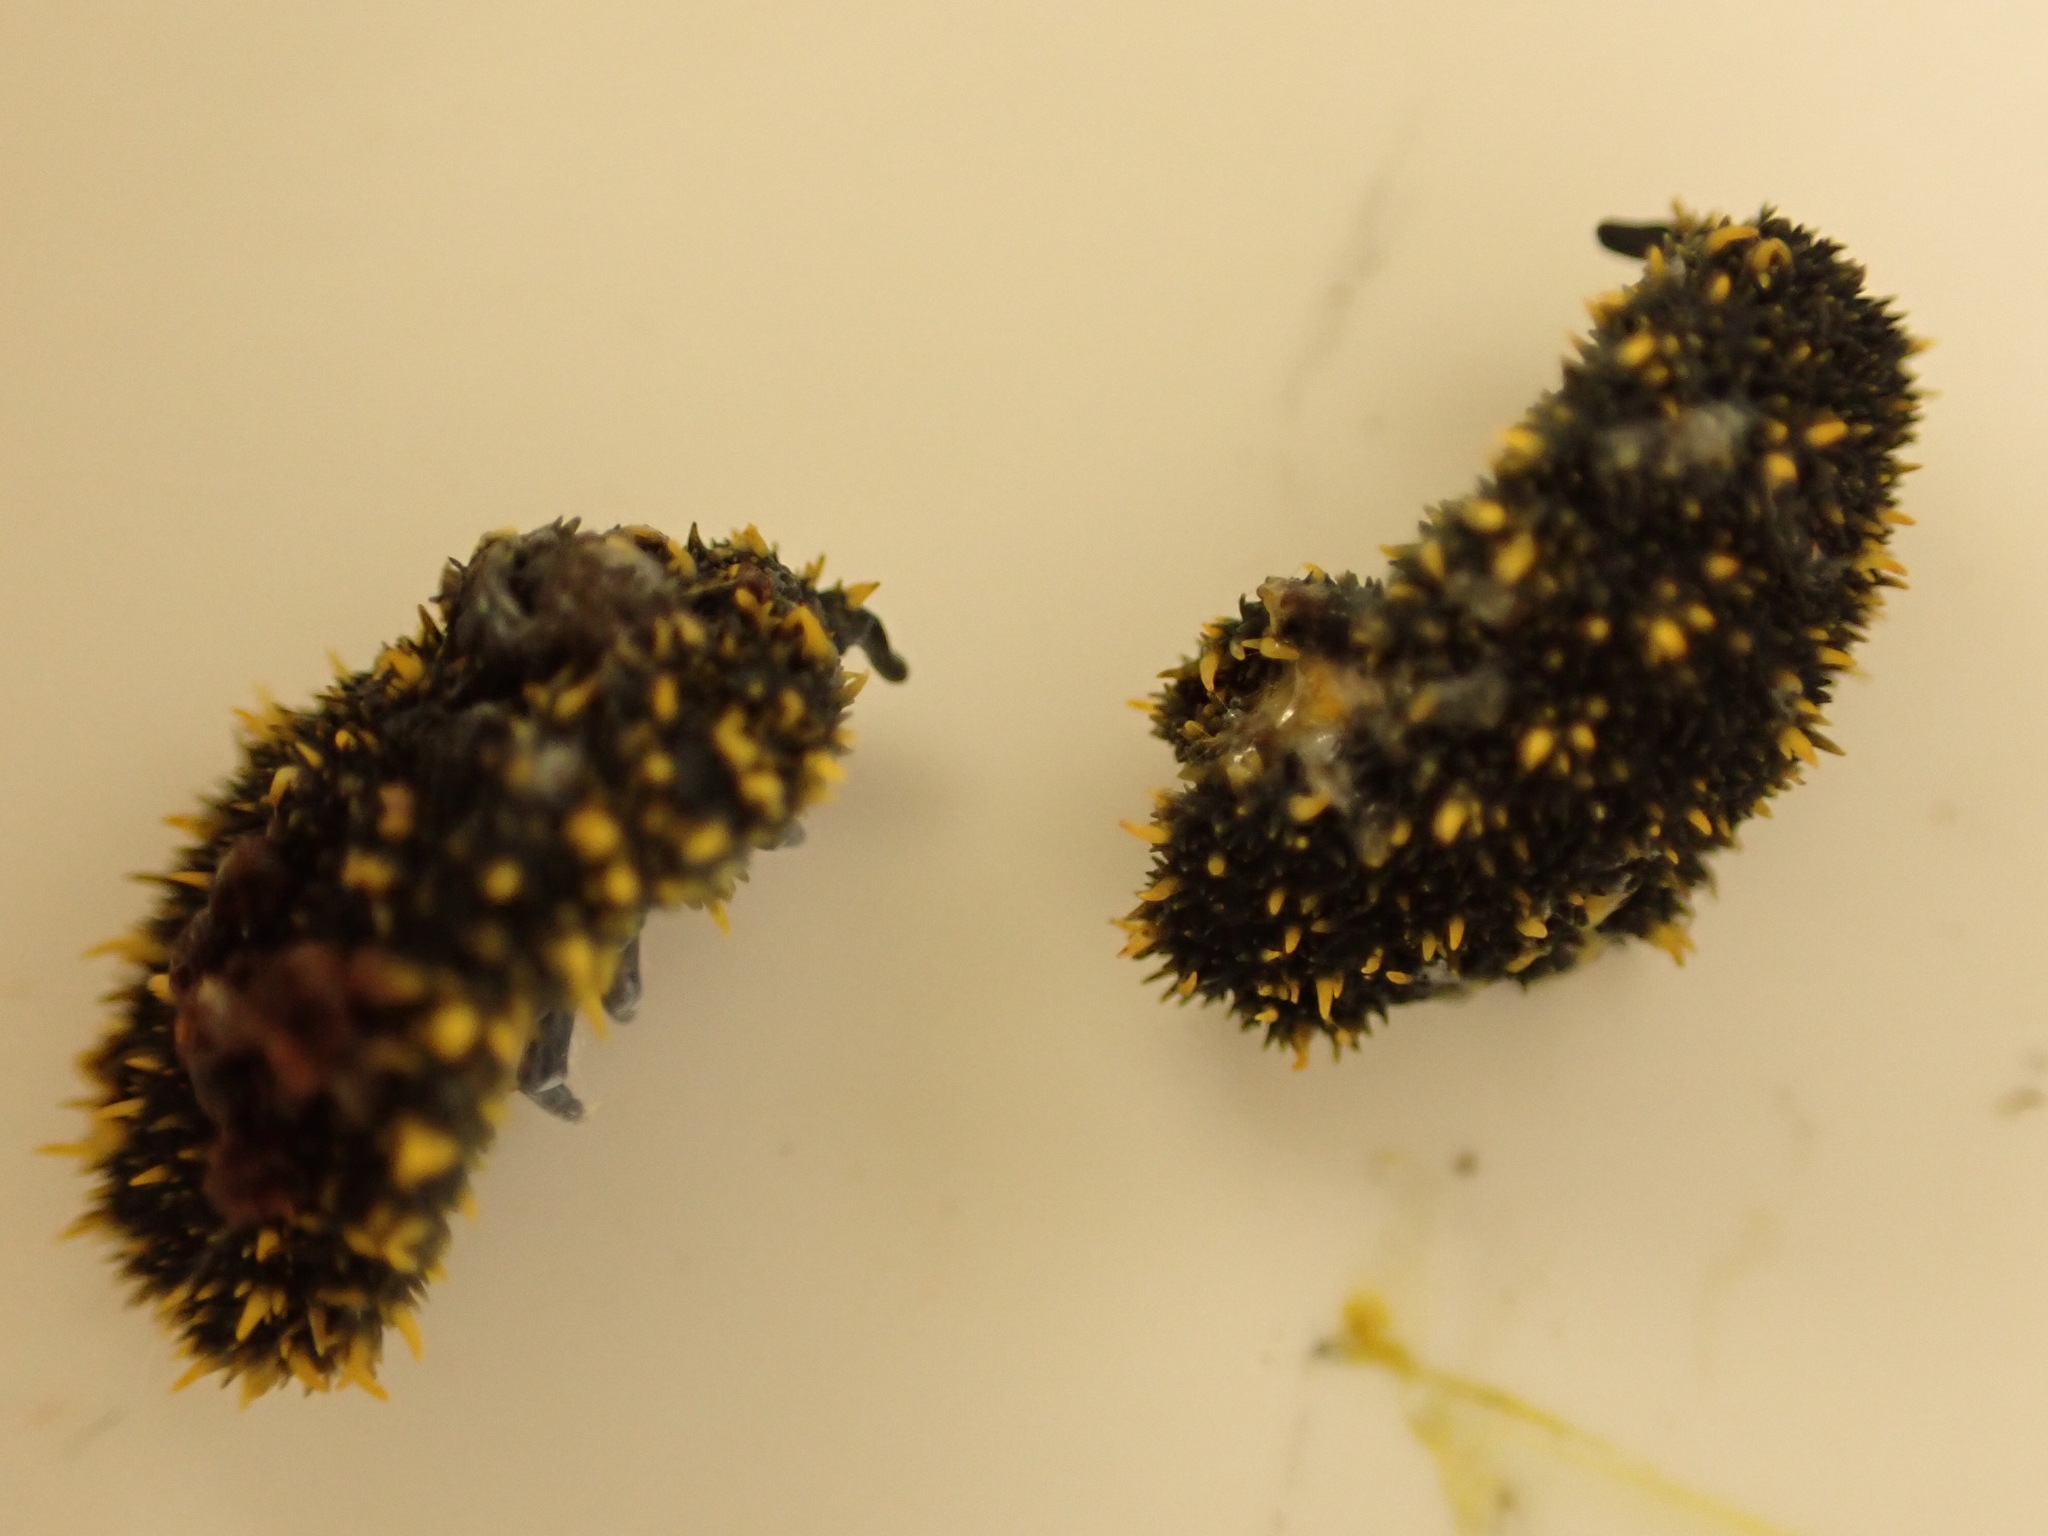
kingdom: Animalia
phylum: Arthropoda
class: Collembola
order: Poduromorpha
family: Neanuridae
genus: Holacanthella
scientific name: Holacanthella duospinosa
